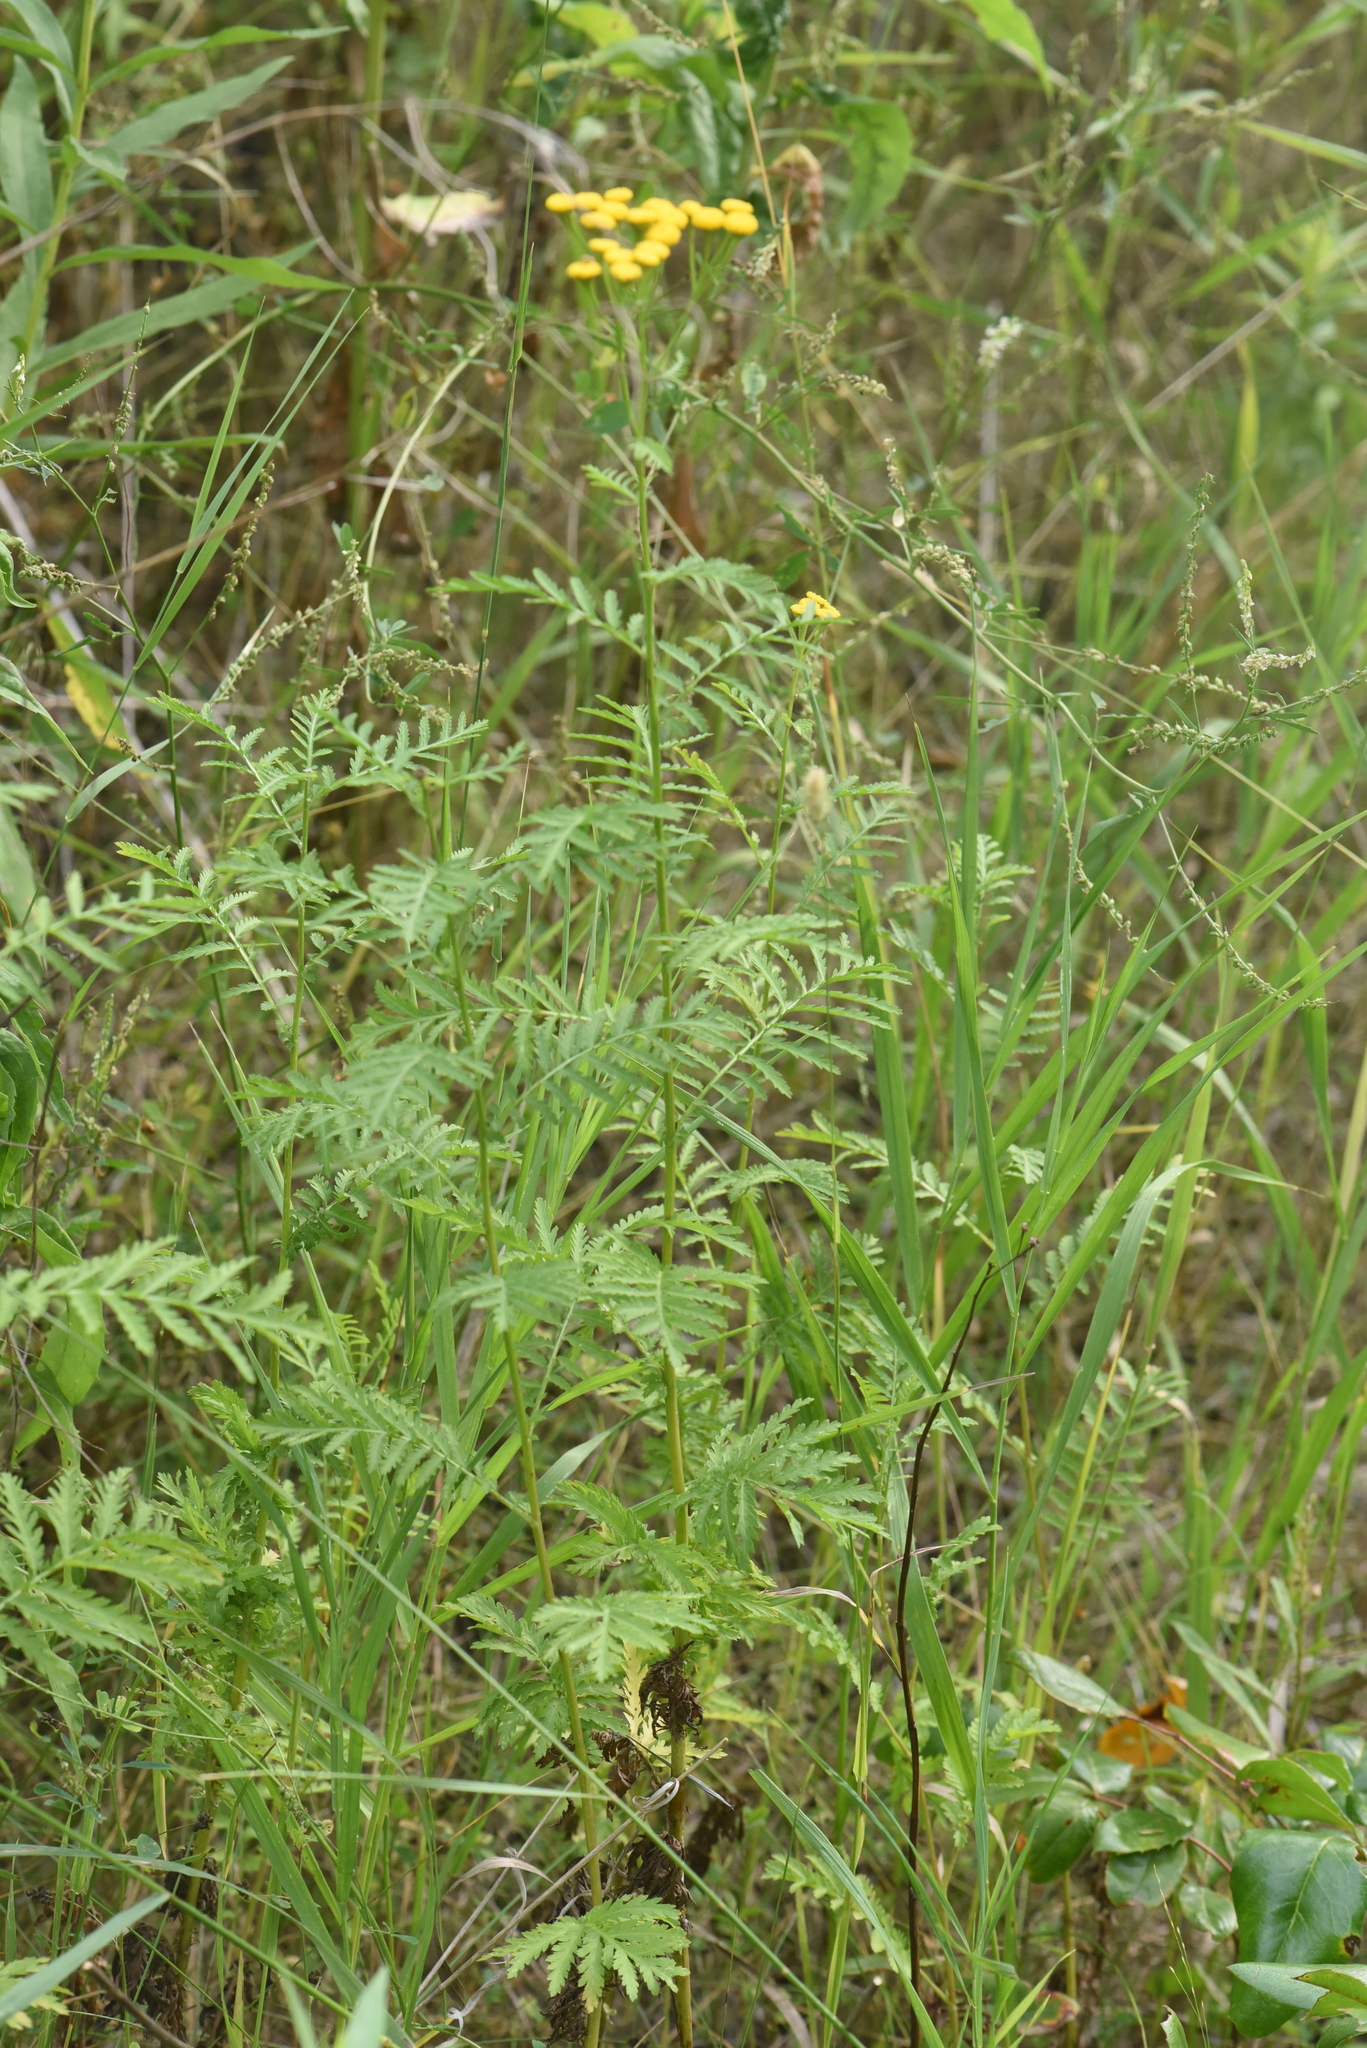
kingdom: Plantae
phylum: Tracheophyta
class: Magnoliopsida
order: Asterales
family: Asteraceae
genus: Tanacetum
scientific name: Tanacetum vulgare
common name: Common tansy
